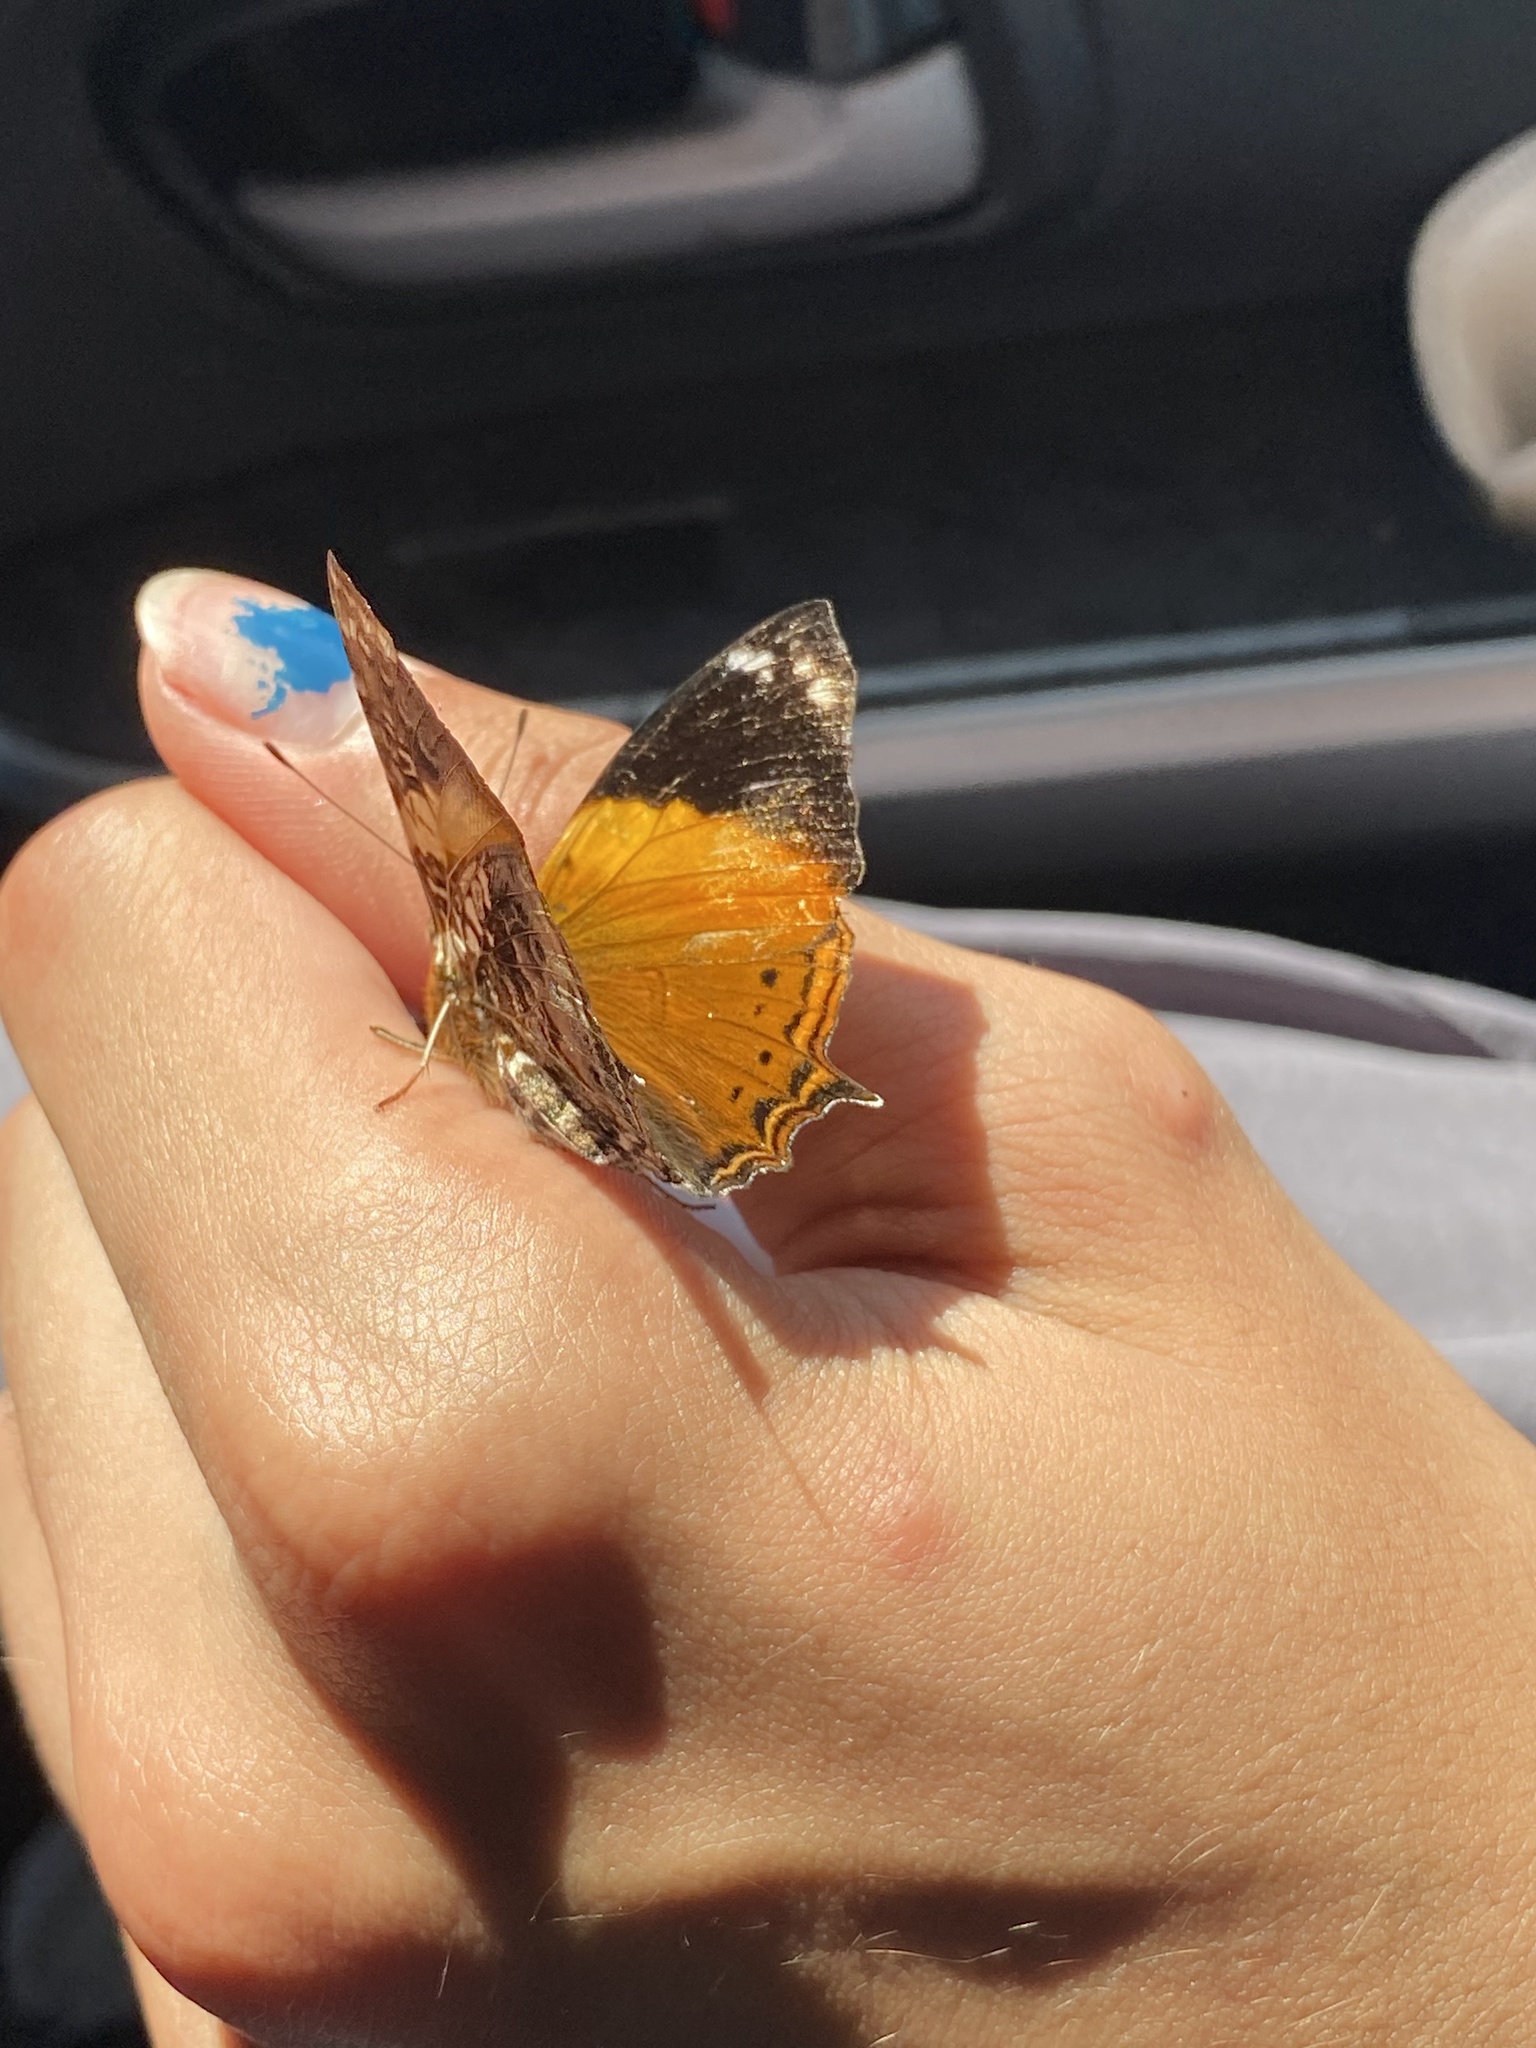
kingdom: Animalia
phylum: Arthropoda
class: Insecta
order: Lepidoptera
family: Nymphalidae
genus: Hypanartia
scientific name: Hypanartia godmanii
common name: Godman's mapwing
